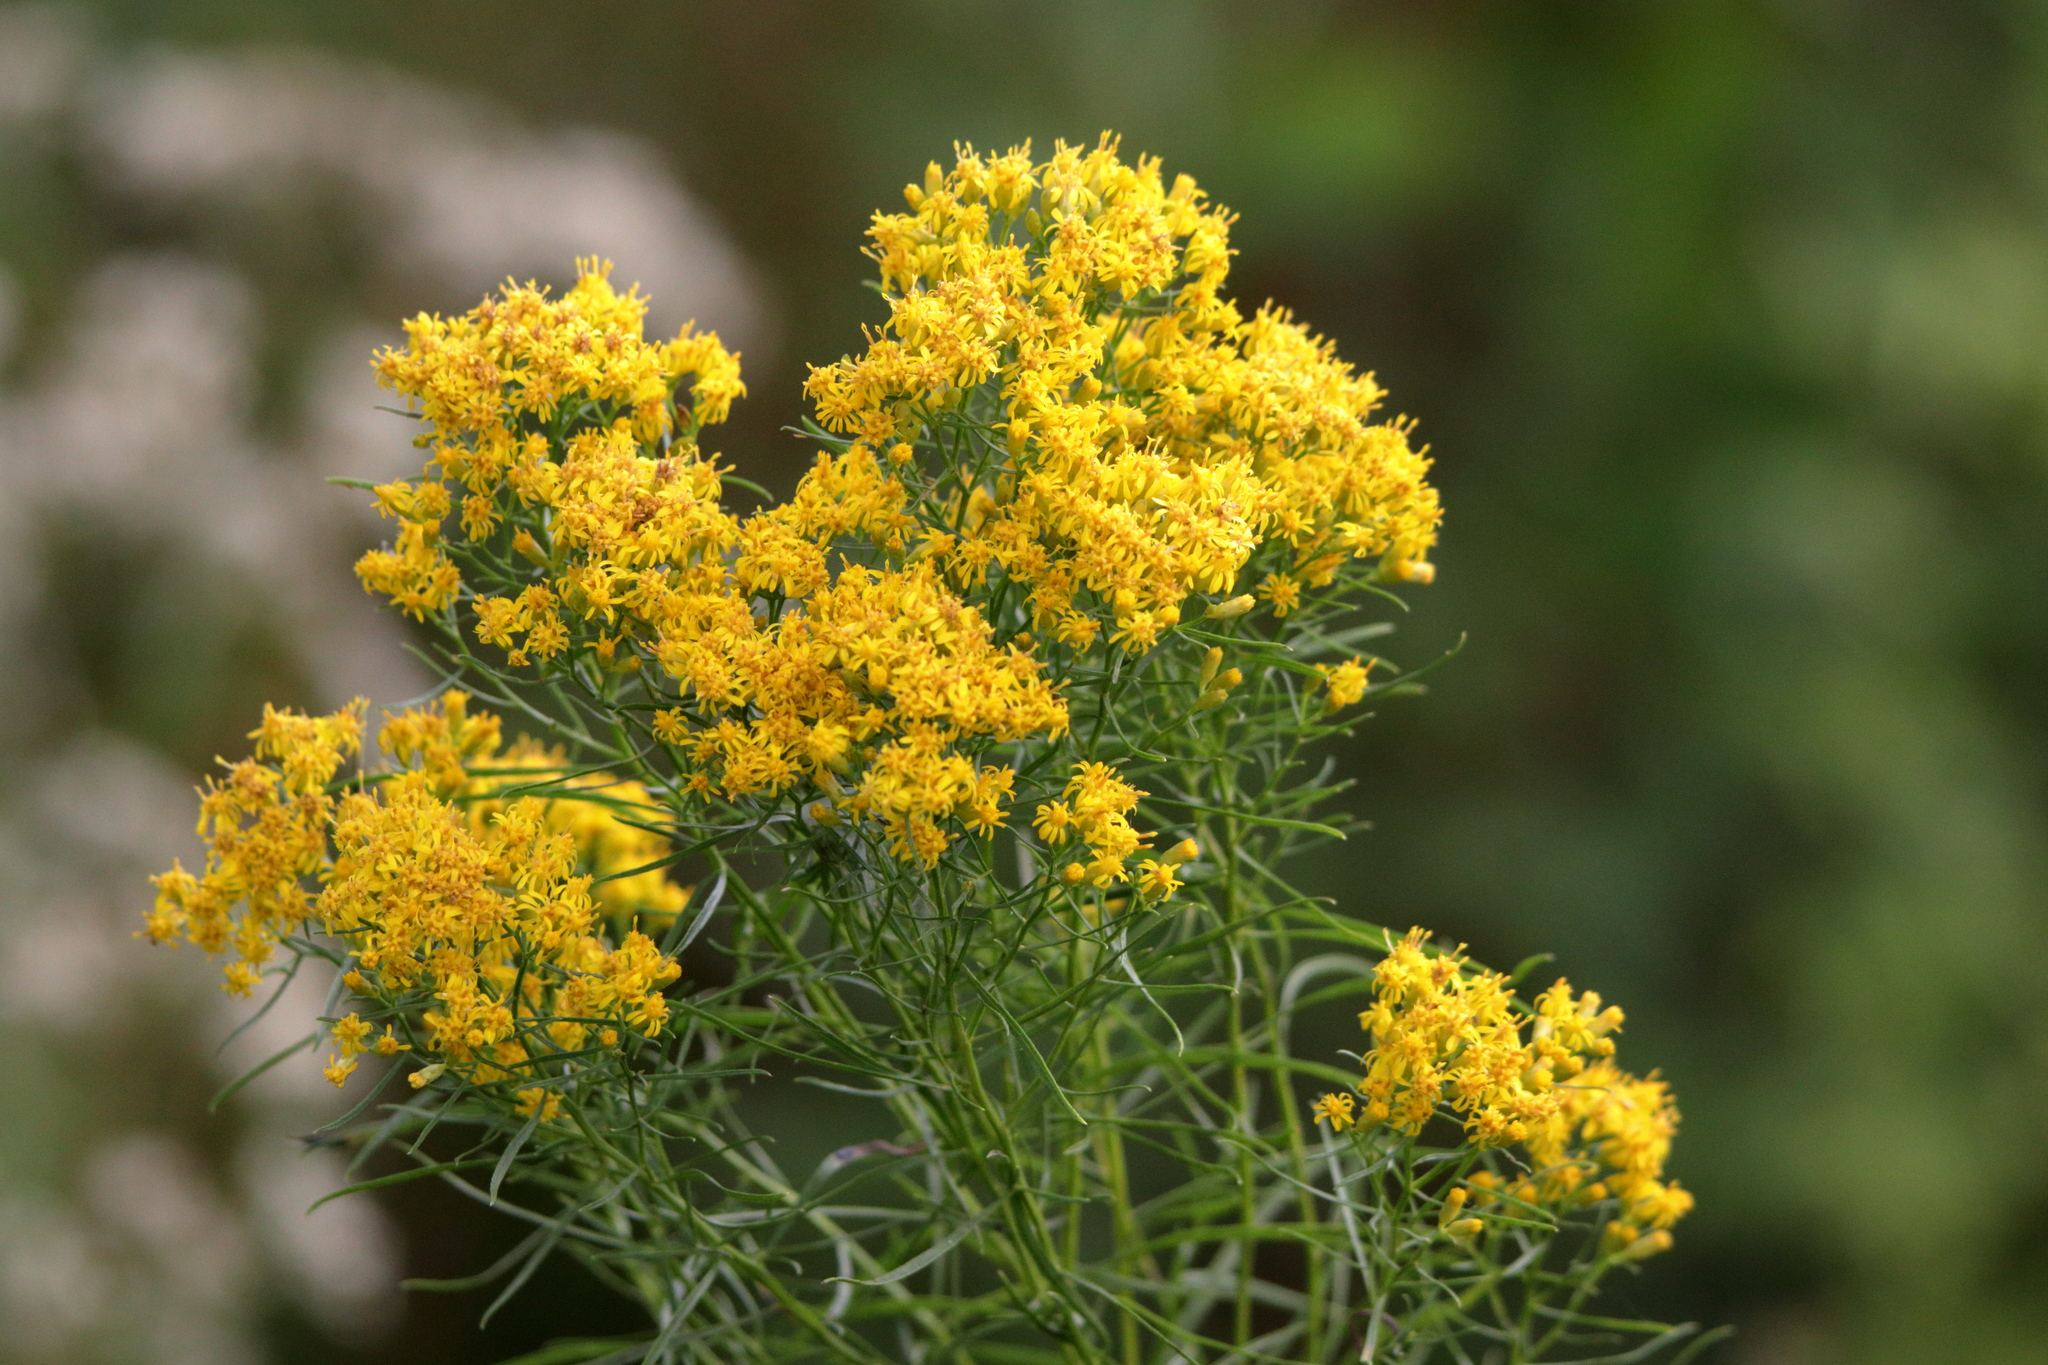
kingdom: Plantae
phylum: Tracheophyta
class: Magnoliopsida
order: Asterales
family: Asteraceae
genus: Euthamia
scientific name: Euthamia caroliniana
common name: Coastal plain goldentop
